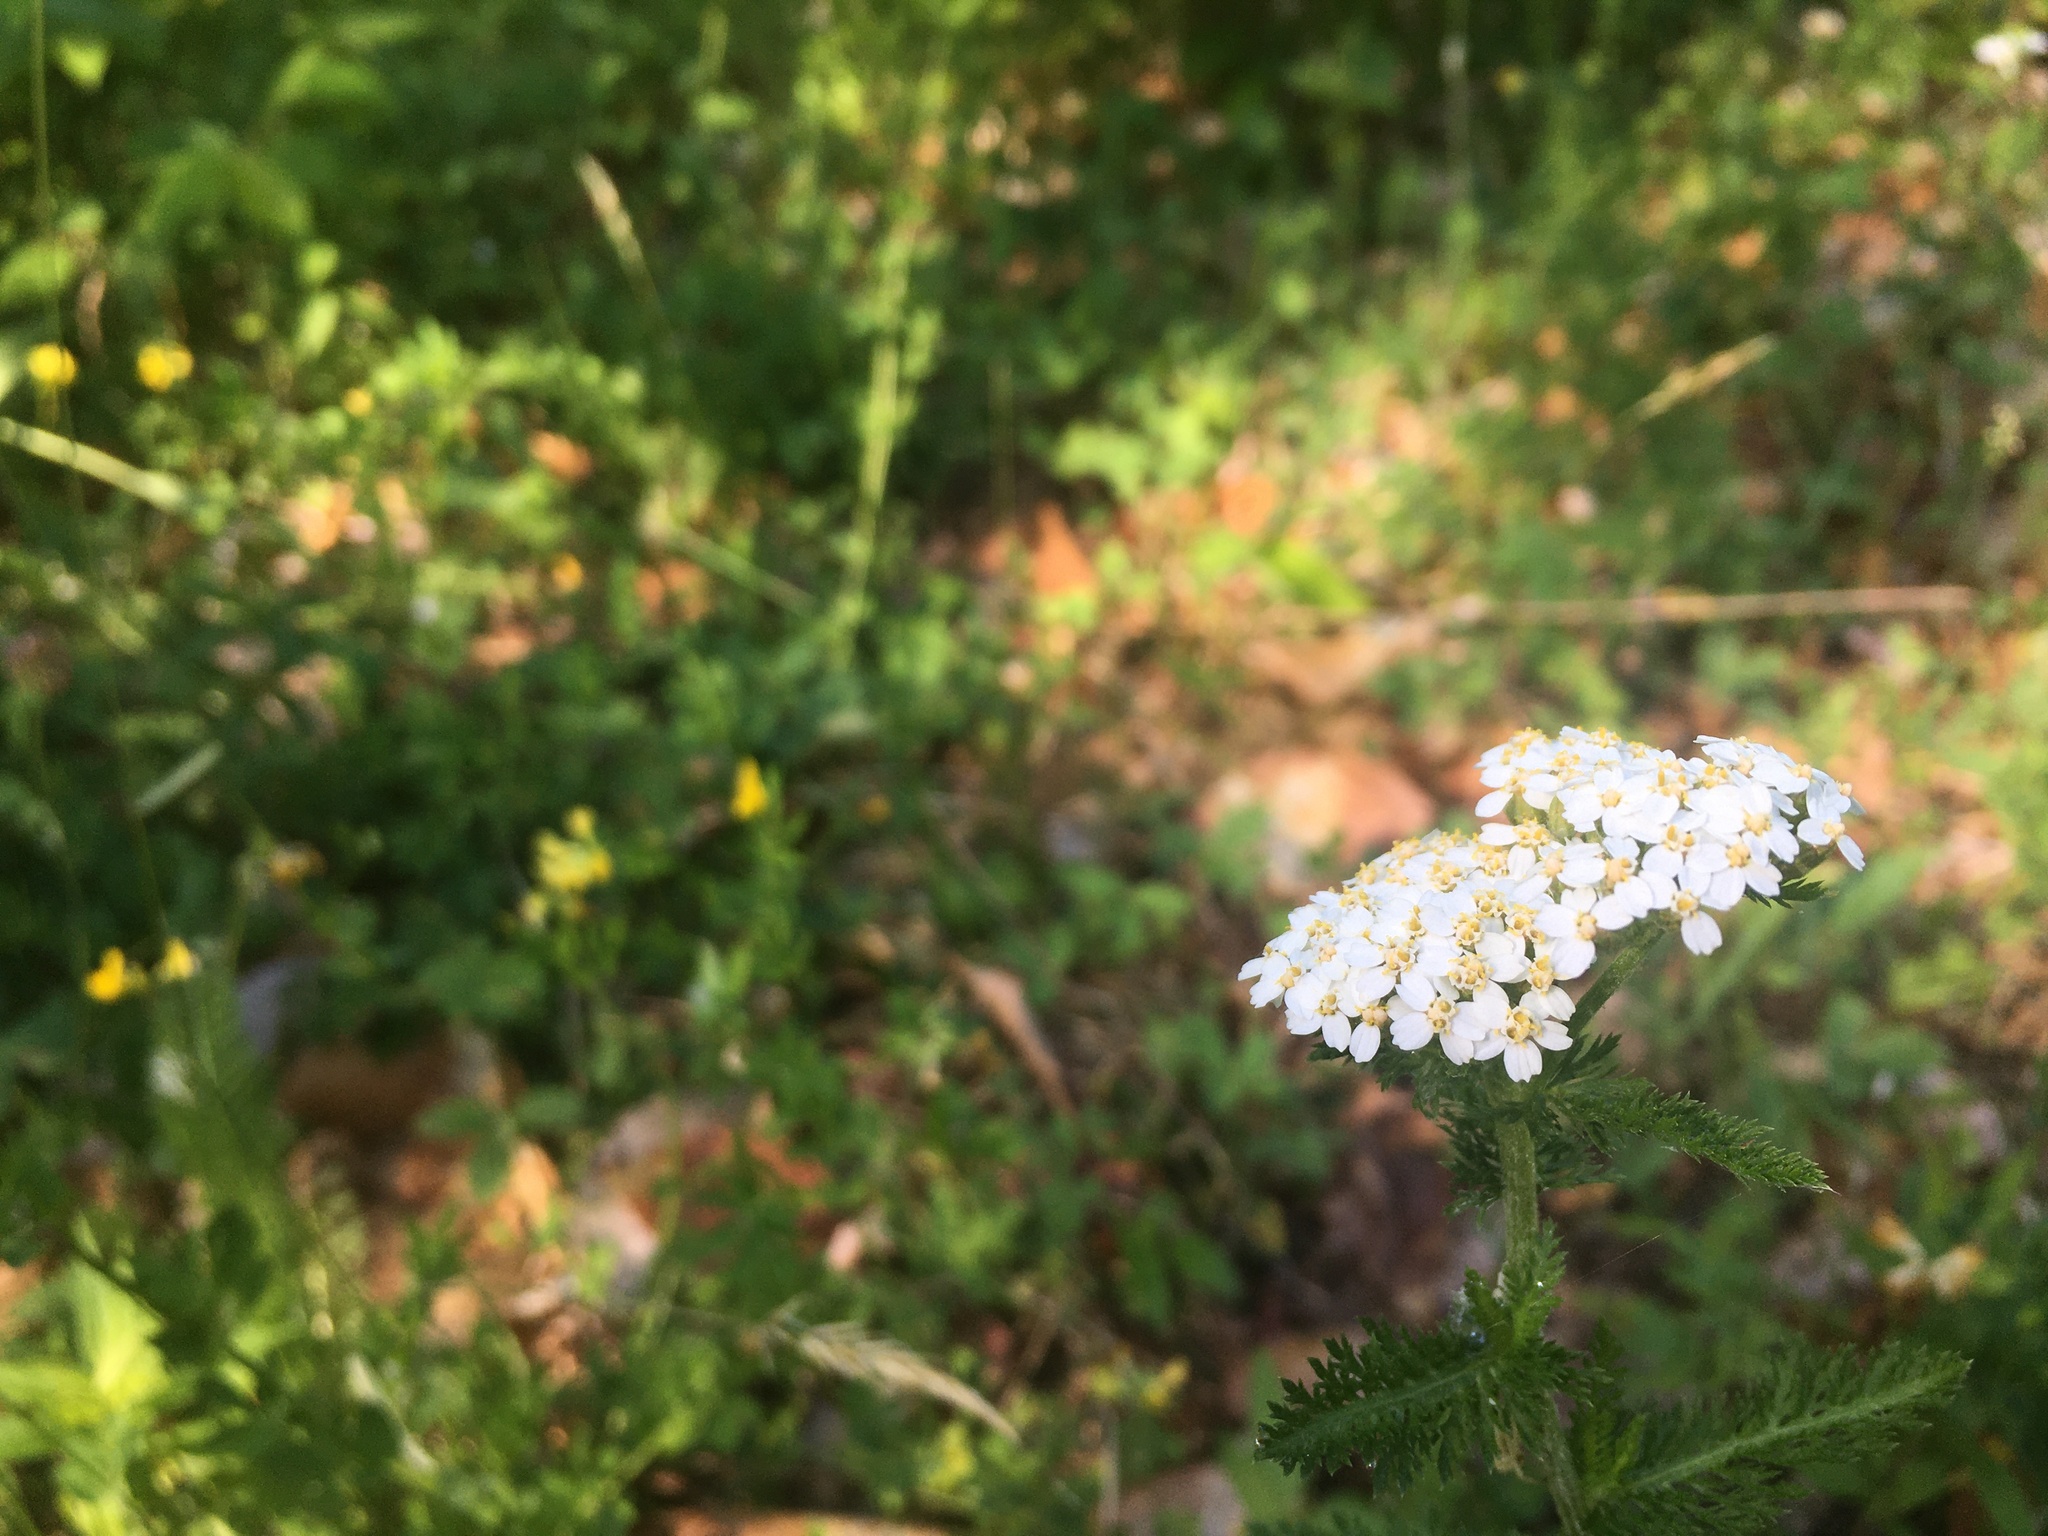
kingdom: Plantae
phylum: Tracheophyta
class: Magnoliopsida
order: Asterales
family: Asteraceae
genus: Achillea
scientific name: Achillea millefolium
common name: Yarrow
